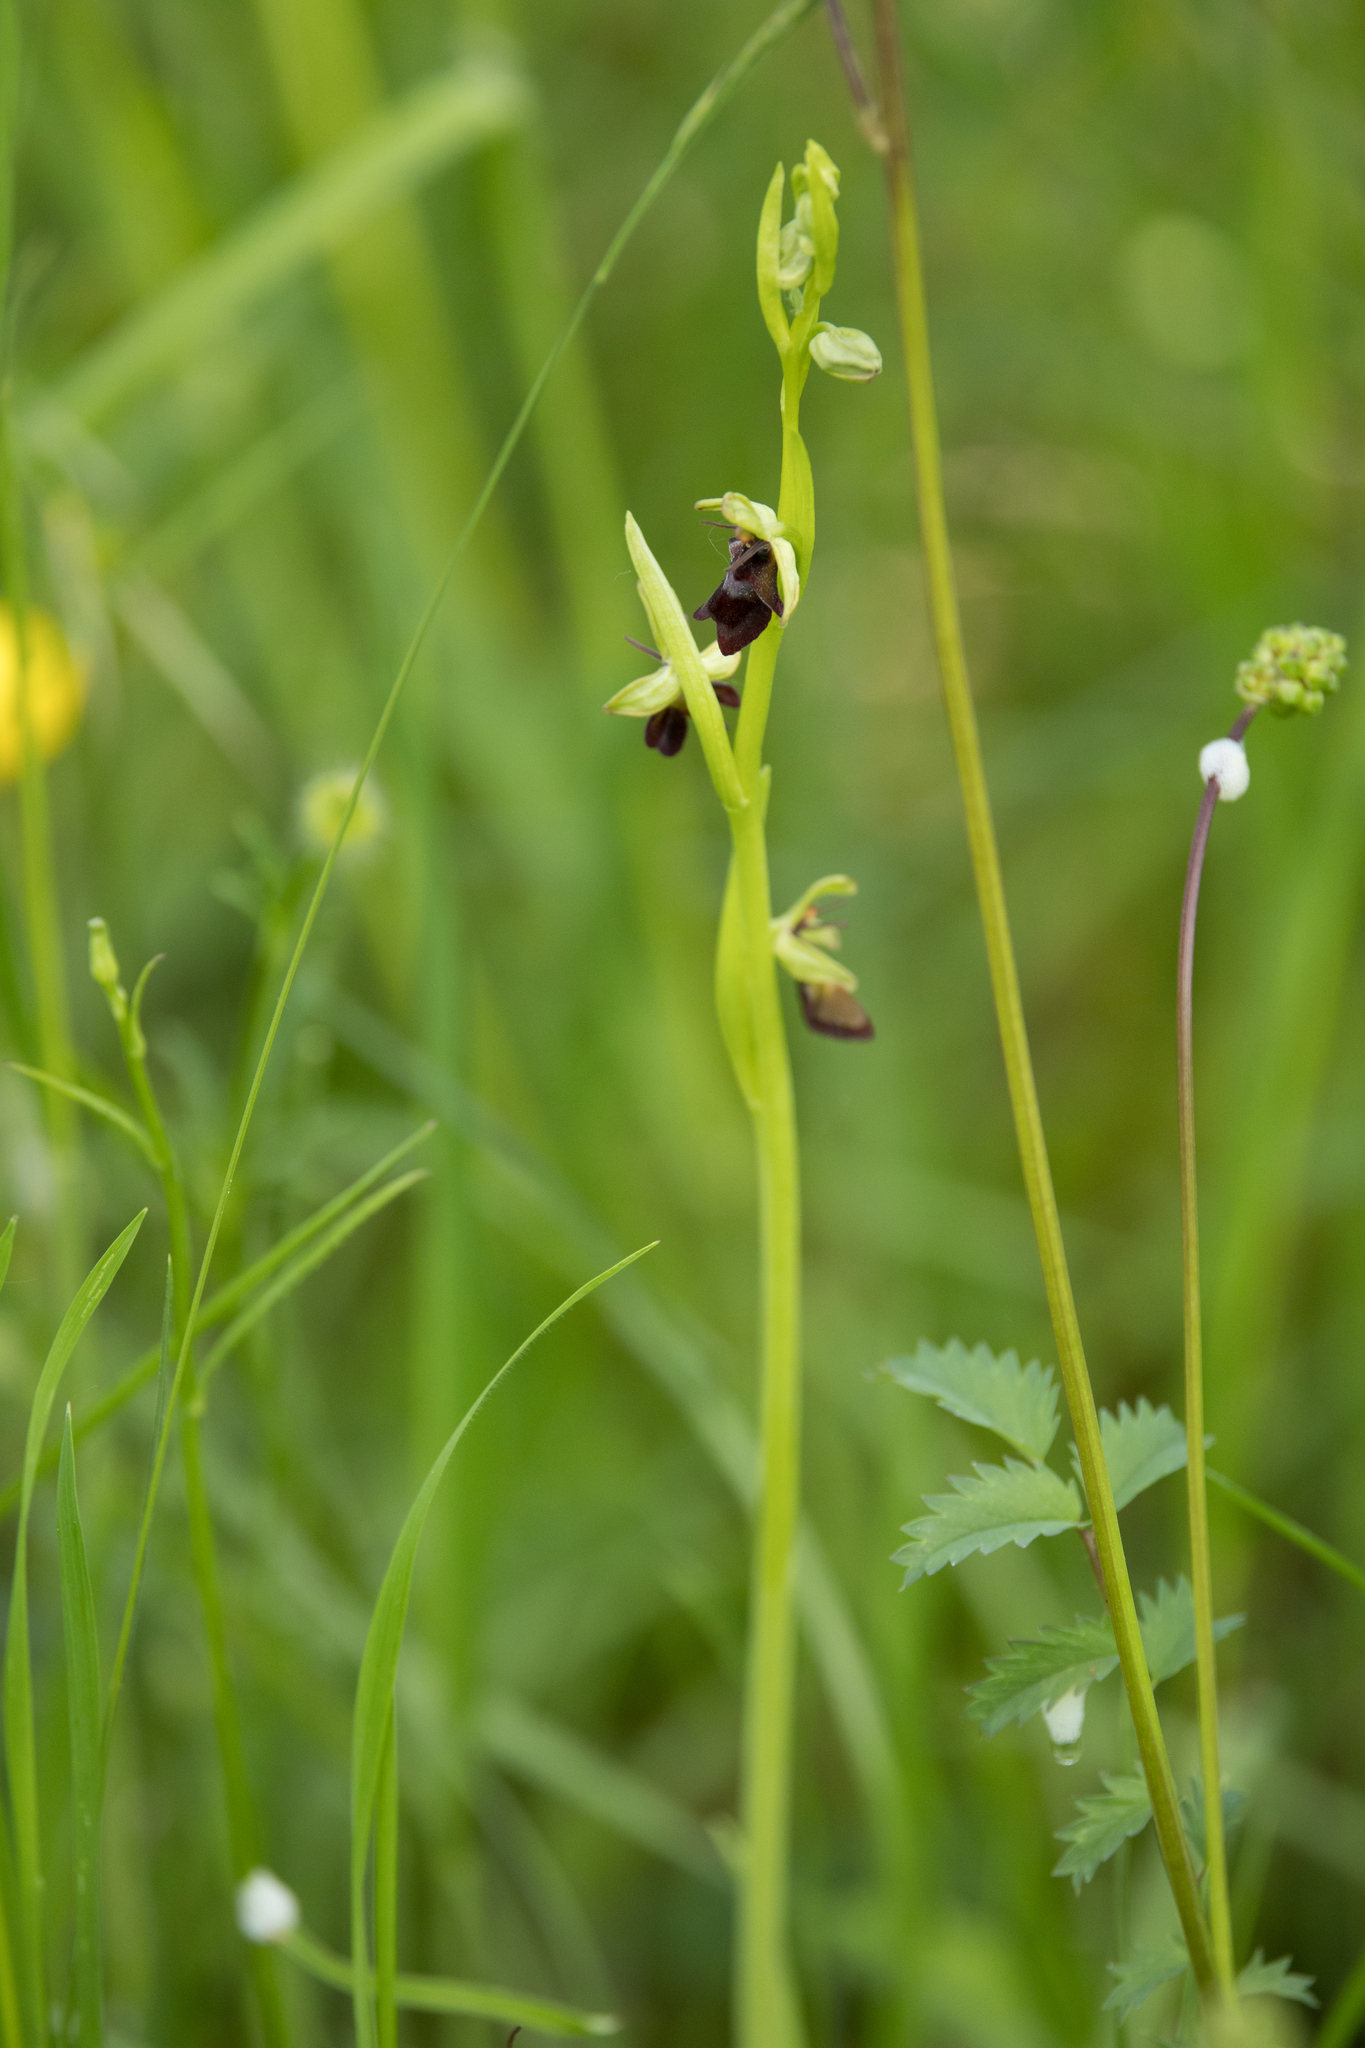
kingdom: Plantae
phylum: Tracheophyta
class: Liliopsida
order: Asparagales
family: Orchidaceae
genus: Ophrys
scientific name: Ophrys insectifera
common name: Fly orchid
